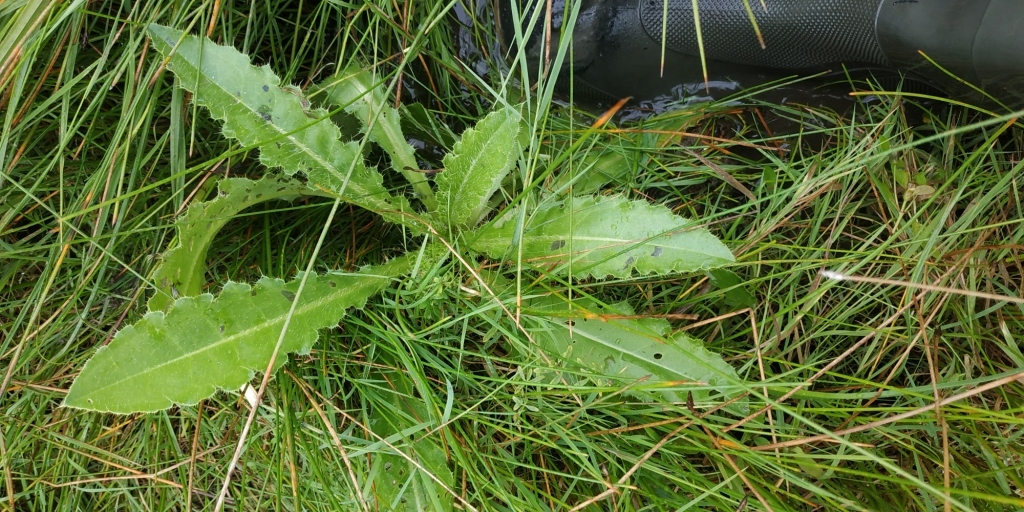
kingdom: Plantae
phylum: Tracheophyta
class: Magnoliopsida
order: Asterales
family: Asteraceae
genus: Cirsium
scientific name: Cirsium esculentum
